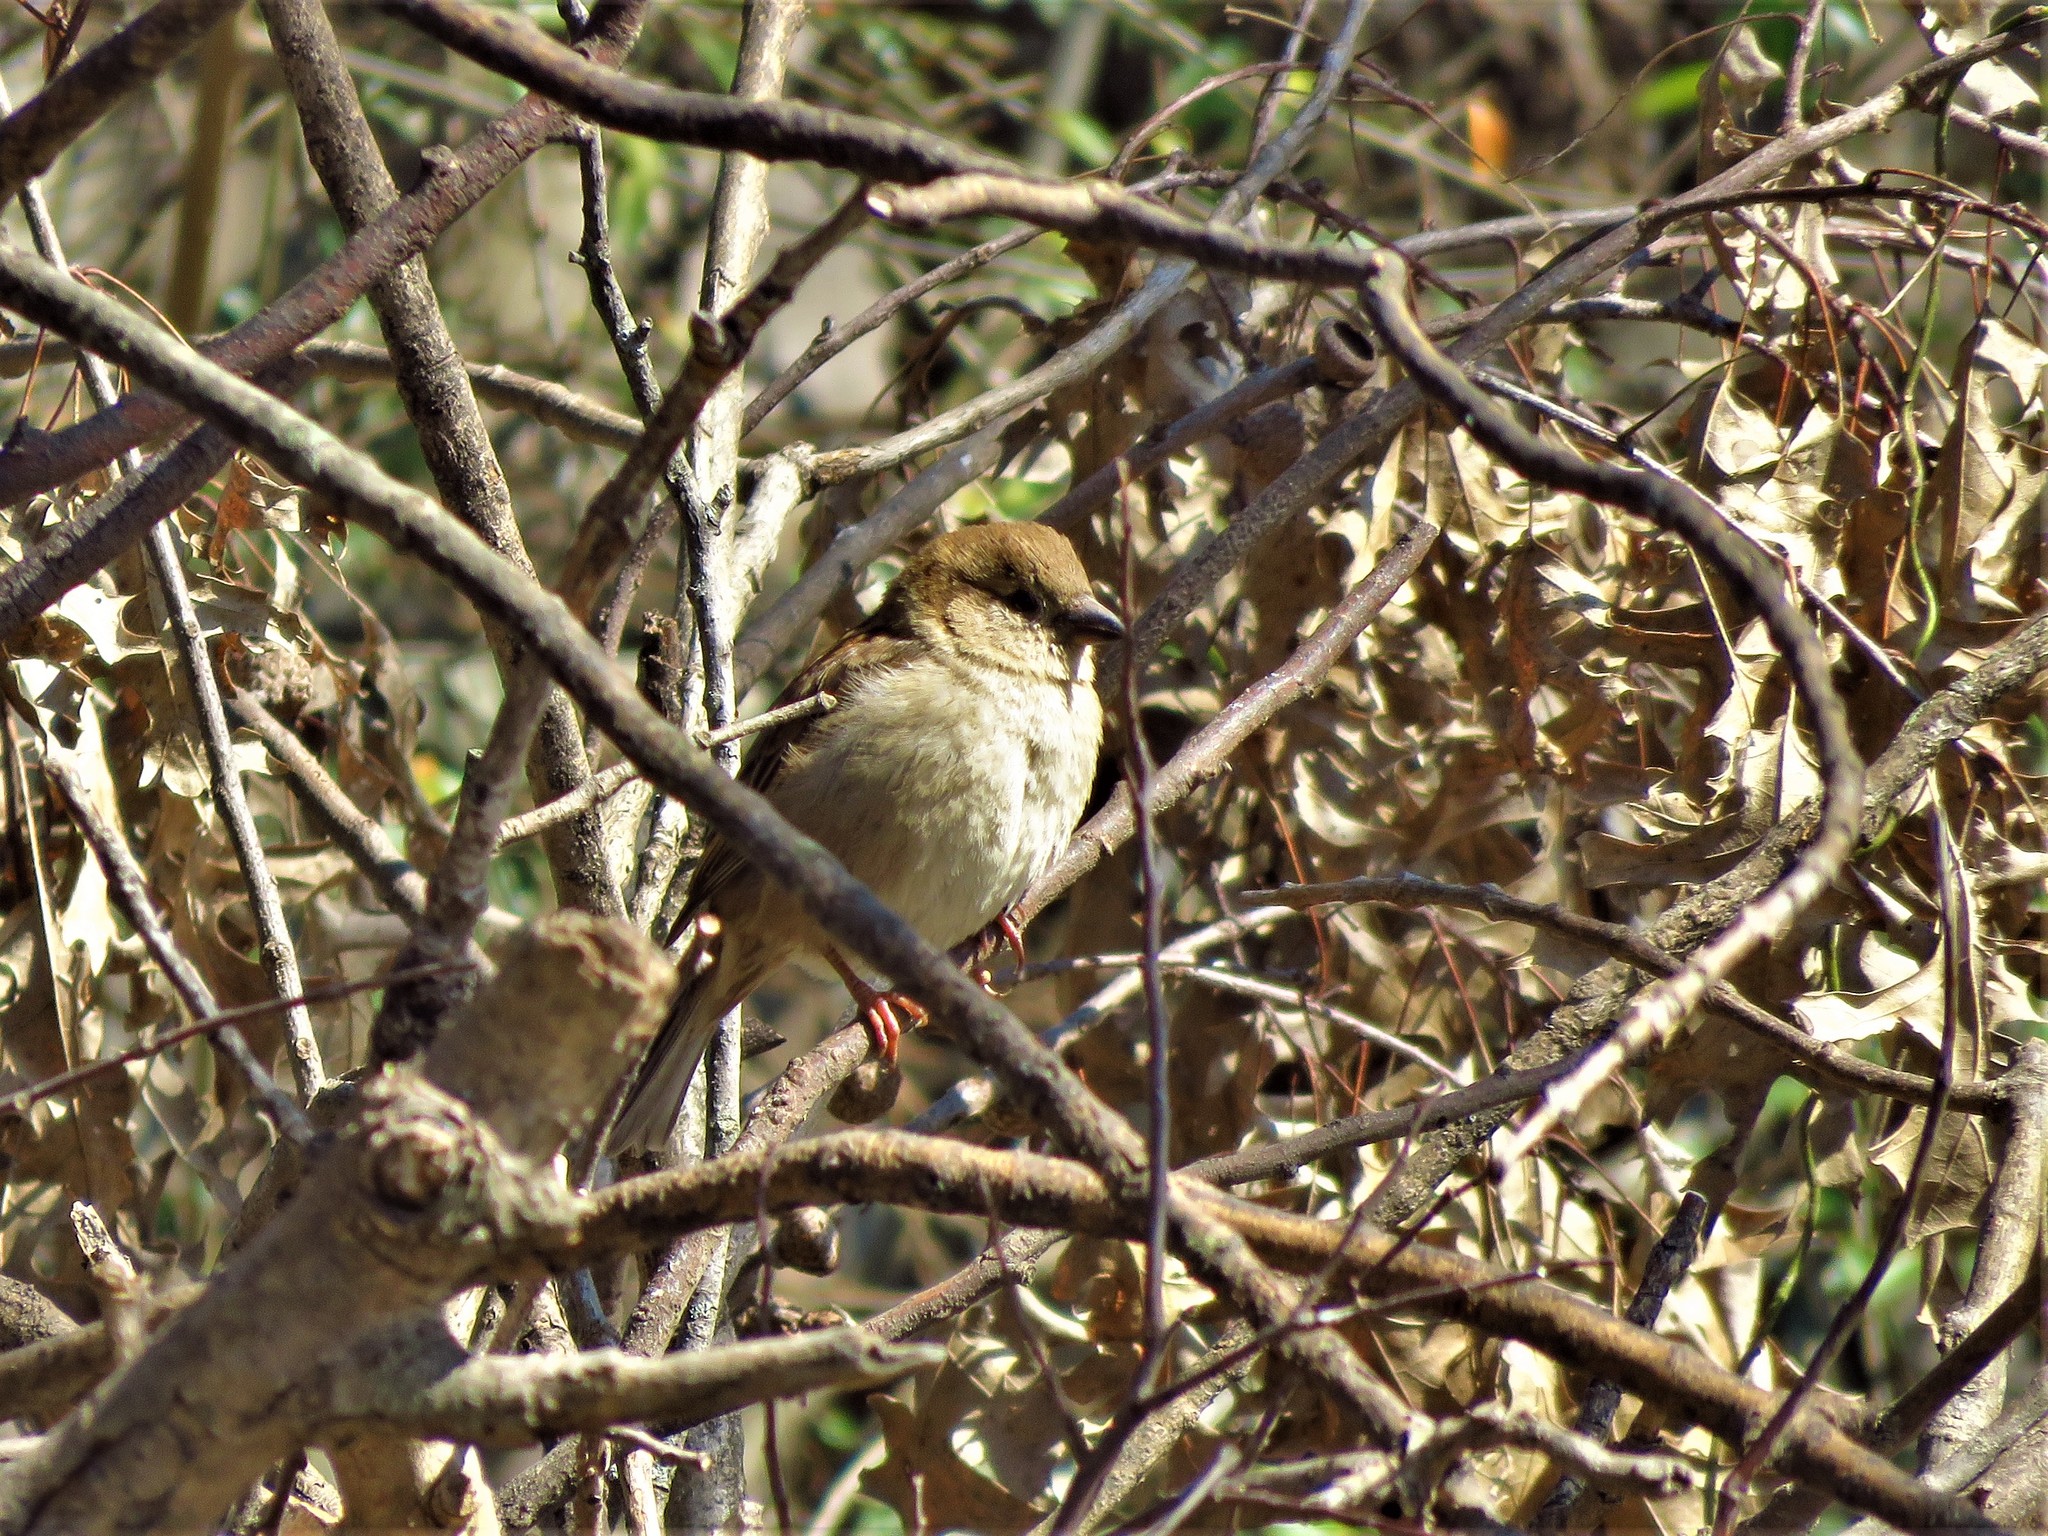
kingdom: Animalia
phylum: Chordata
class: Aves
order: Passeriformes
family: Passeridae
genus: Passer
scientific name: Passer domesticus
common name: House sparrow
